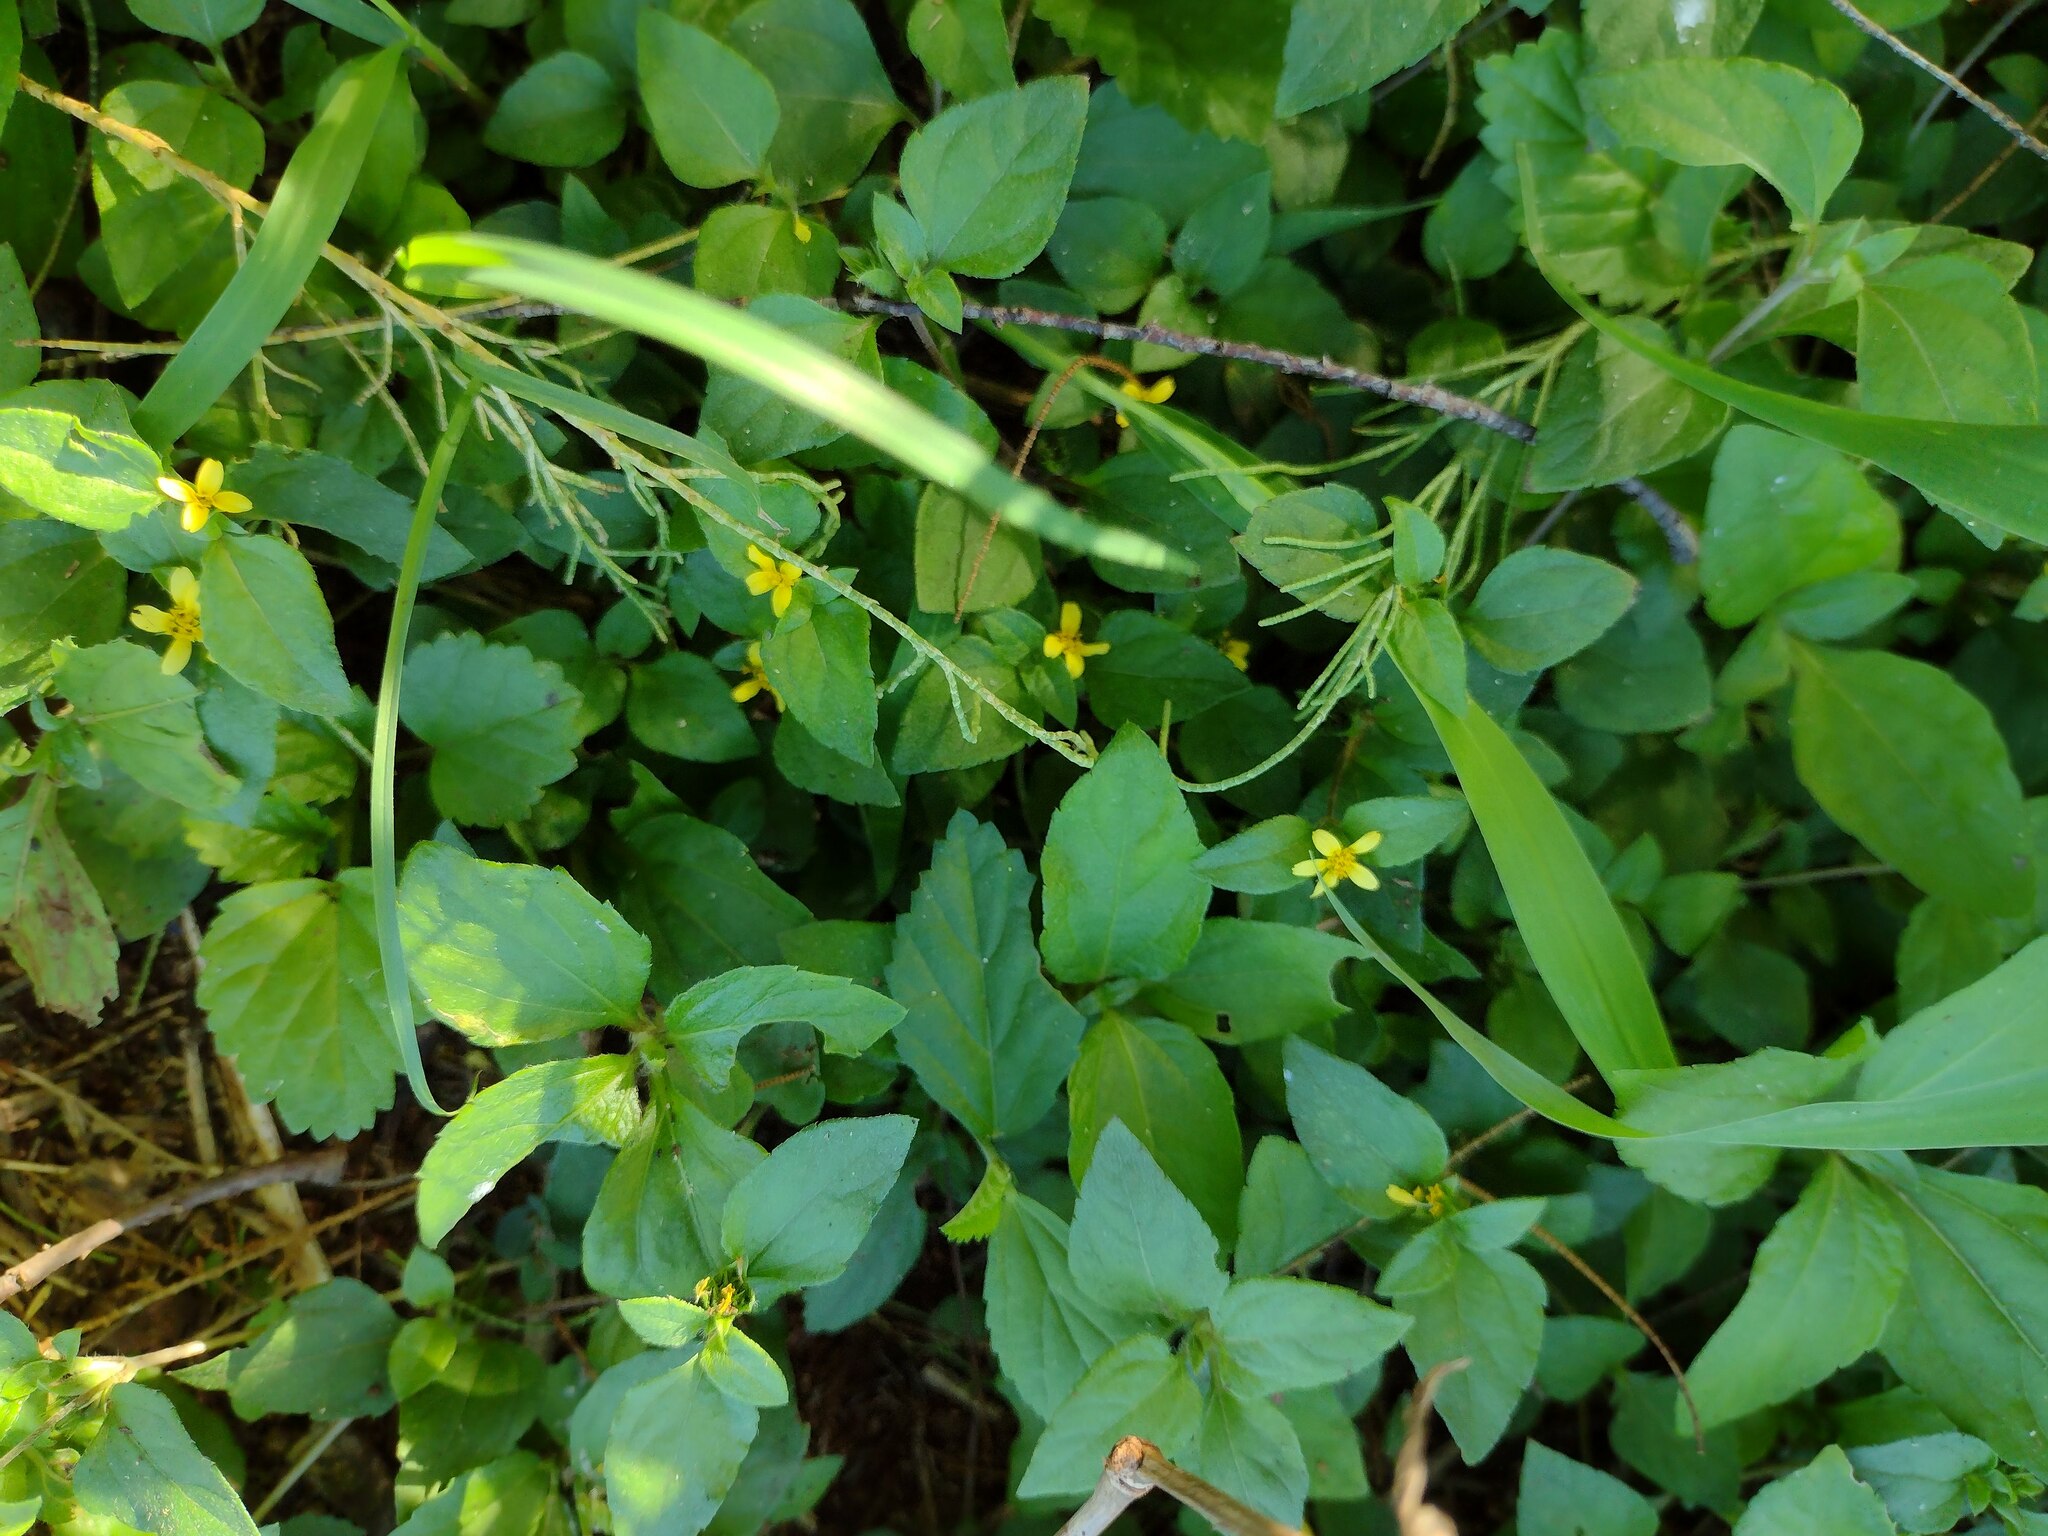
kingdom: Plantae
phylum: Tracheophyta
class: Magnoliopsida
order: Asterales
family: Asteraceae
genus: Calyptocarpus
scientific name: Calyptocarpus vialis
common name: Straggler daisy
